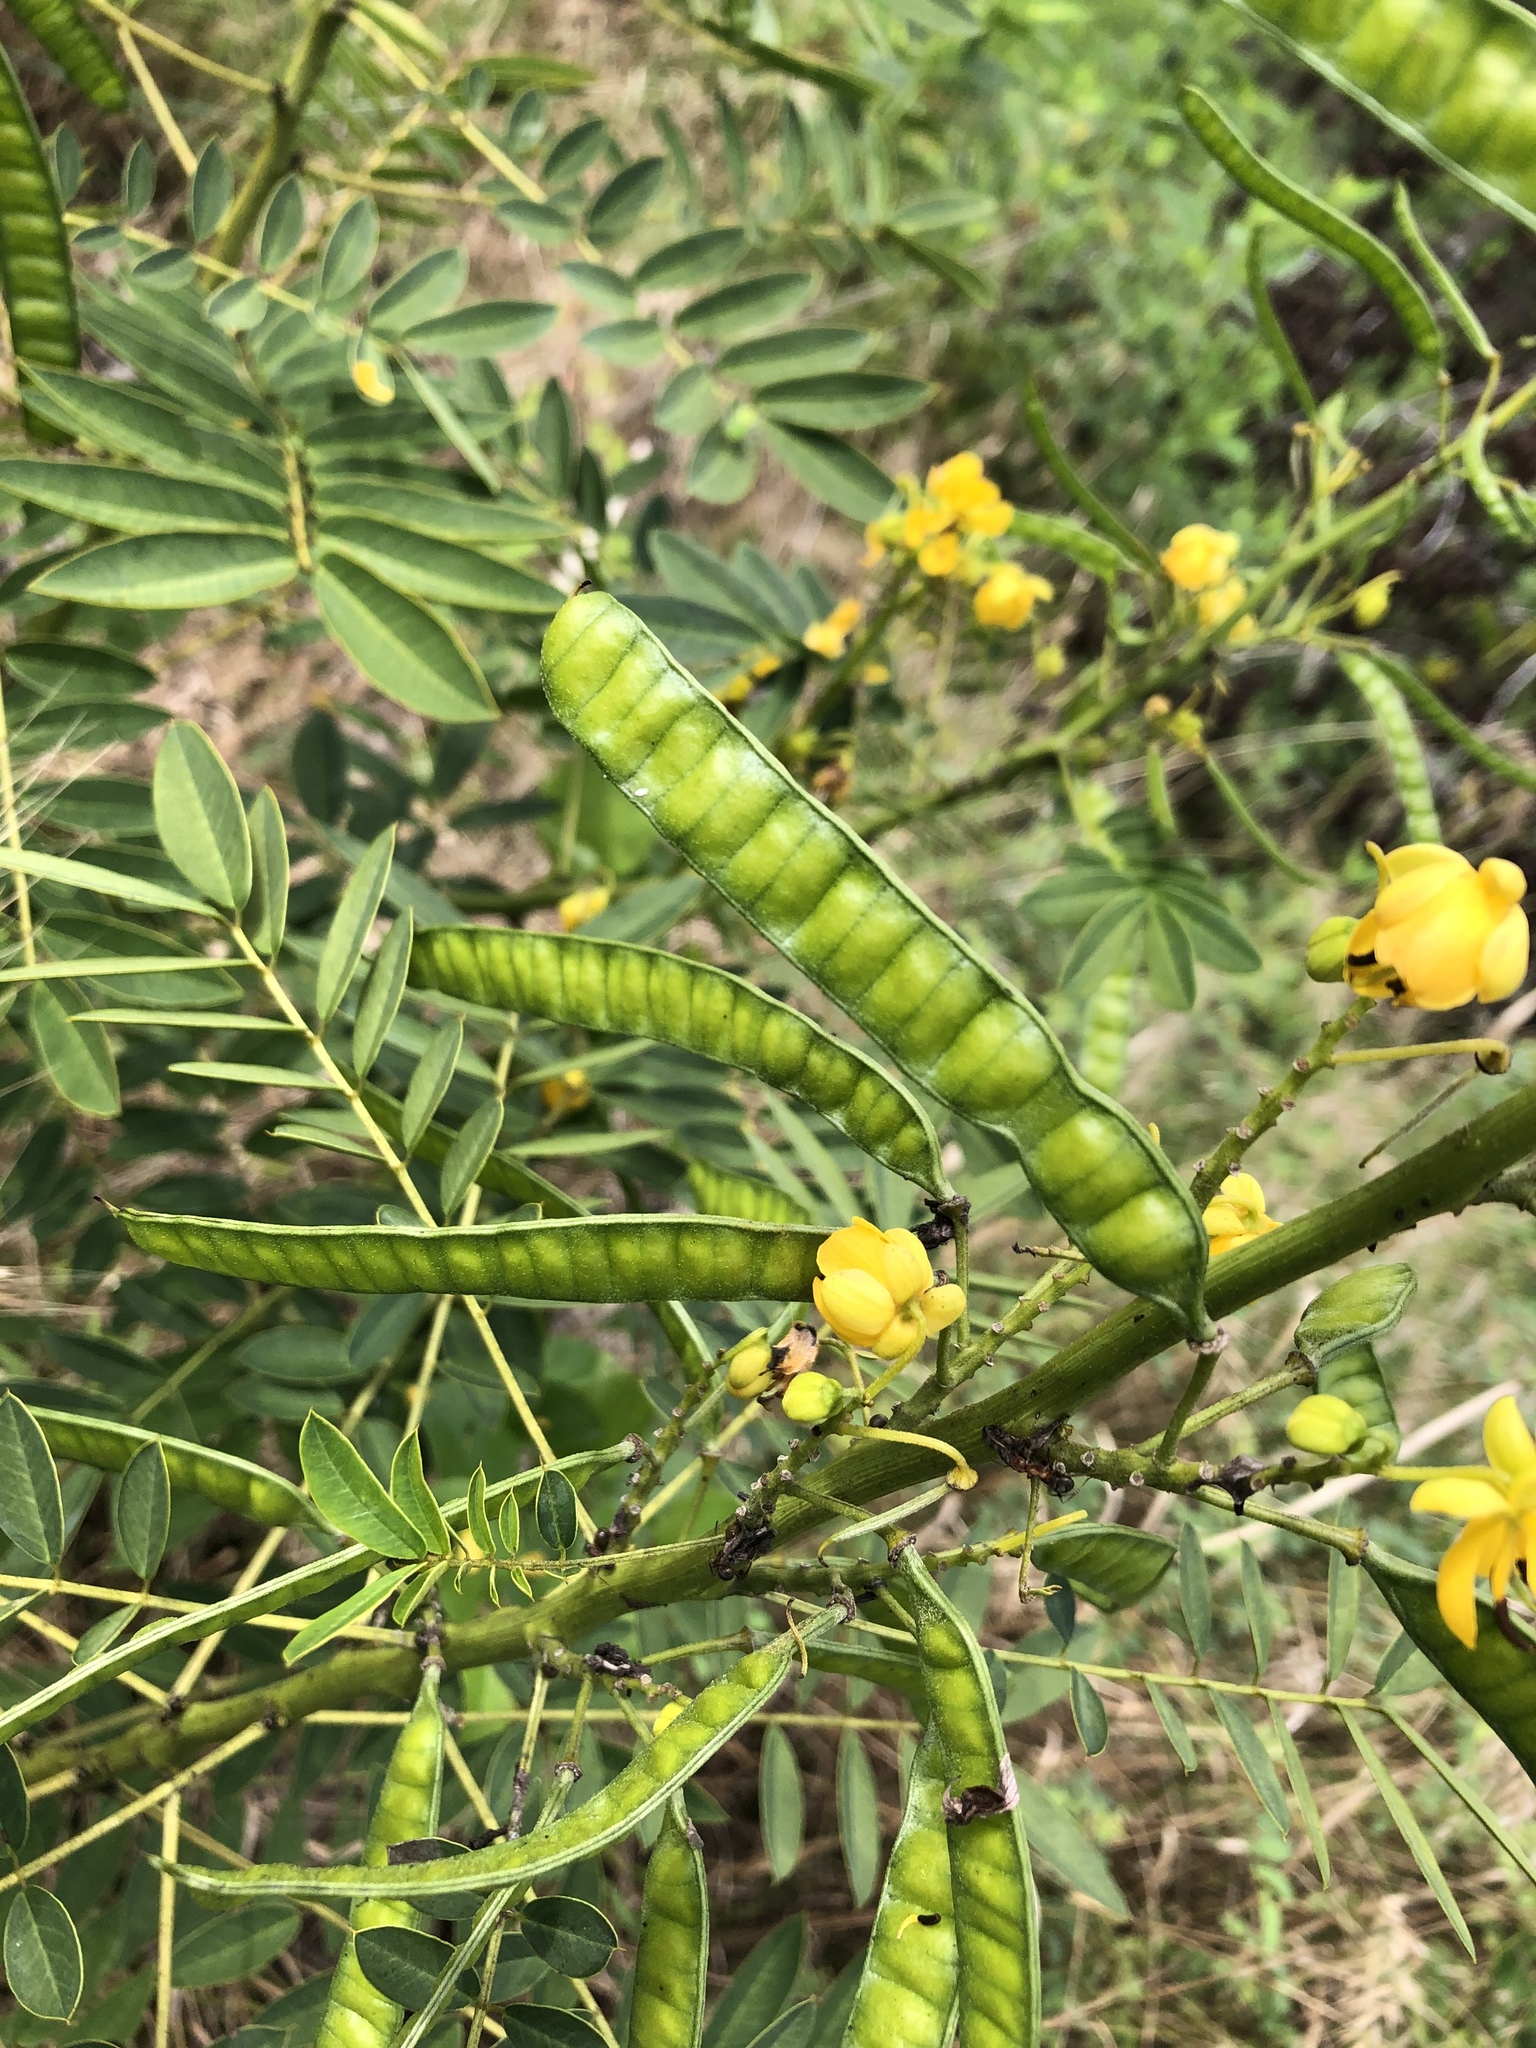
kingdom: Plantae
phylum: Tracheophyta
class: Magnoliopsida
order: Fabales
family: Fabaceae
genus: Senna
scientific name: Senna marilandica
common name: American senna
